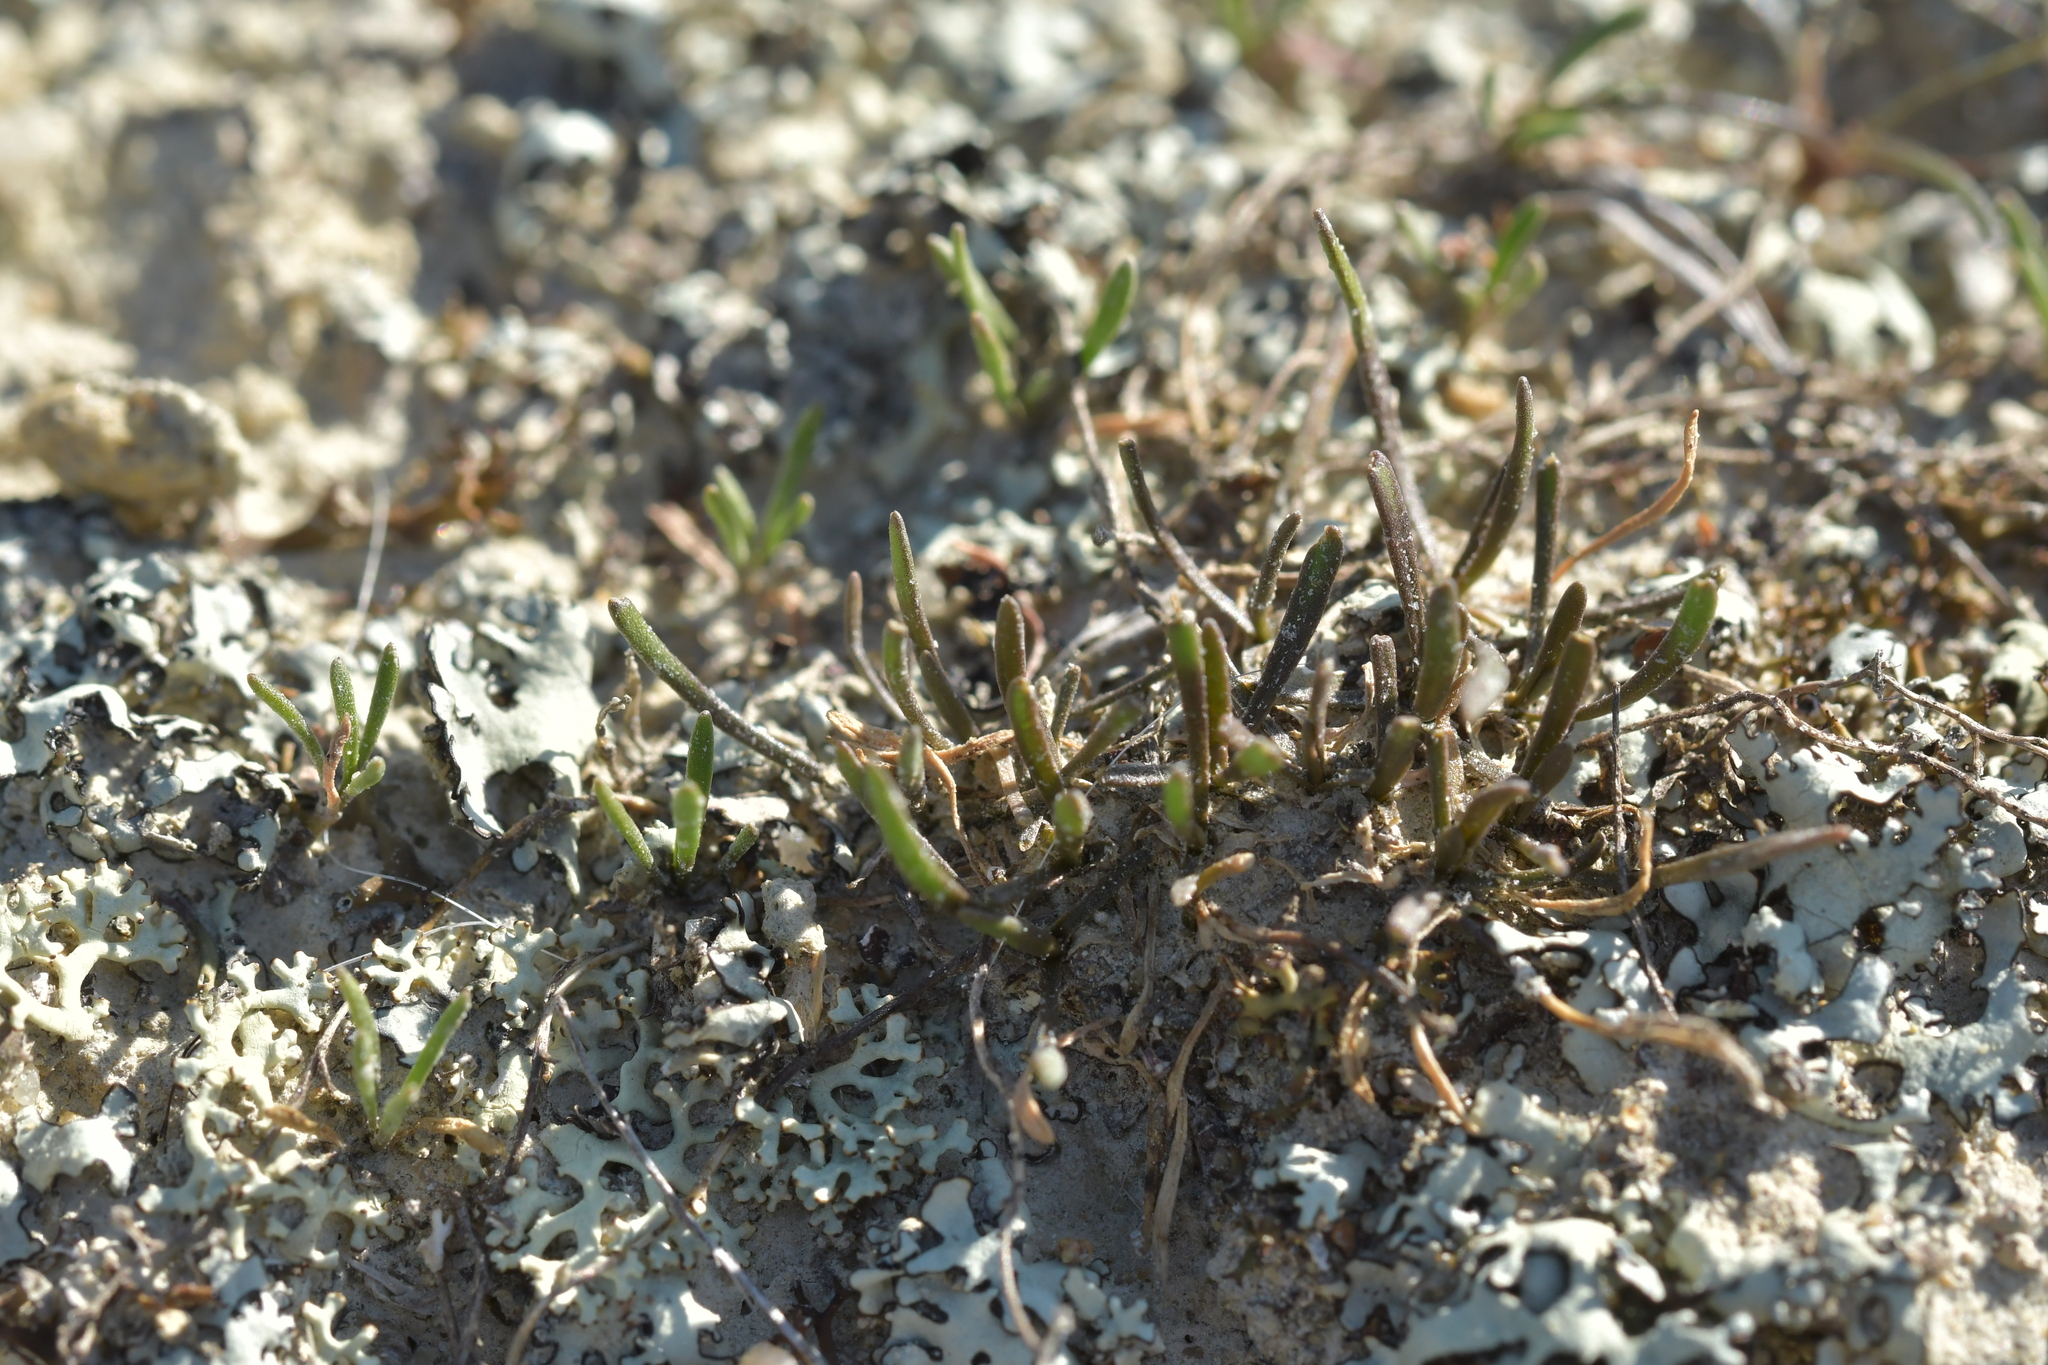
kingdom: Plantae
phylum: Tracheophyta
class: Magnoliopsida
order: Brassicales
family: Brassicaceae
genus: Lepidium
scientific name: Lepidium kirkii
